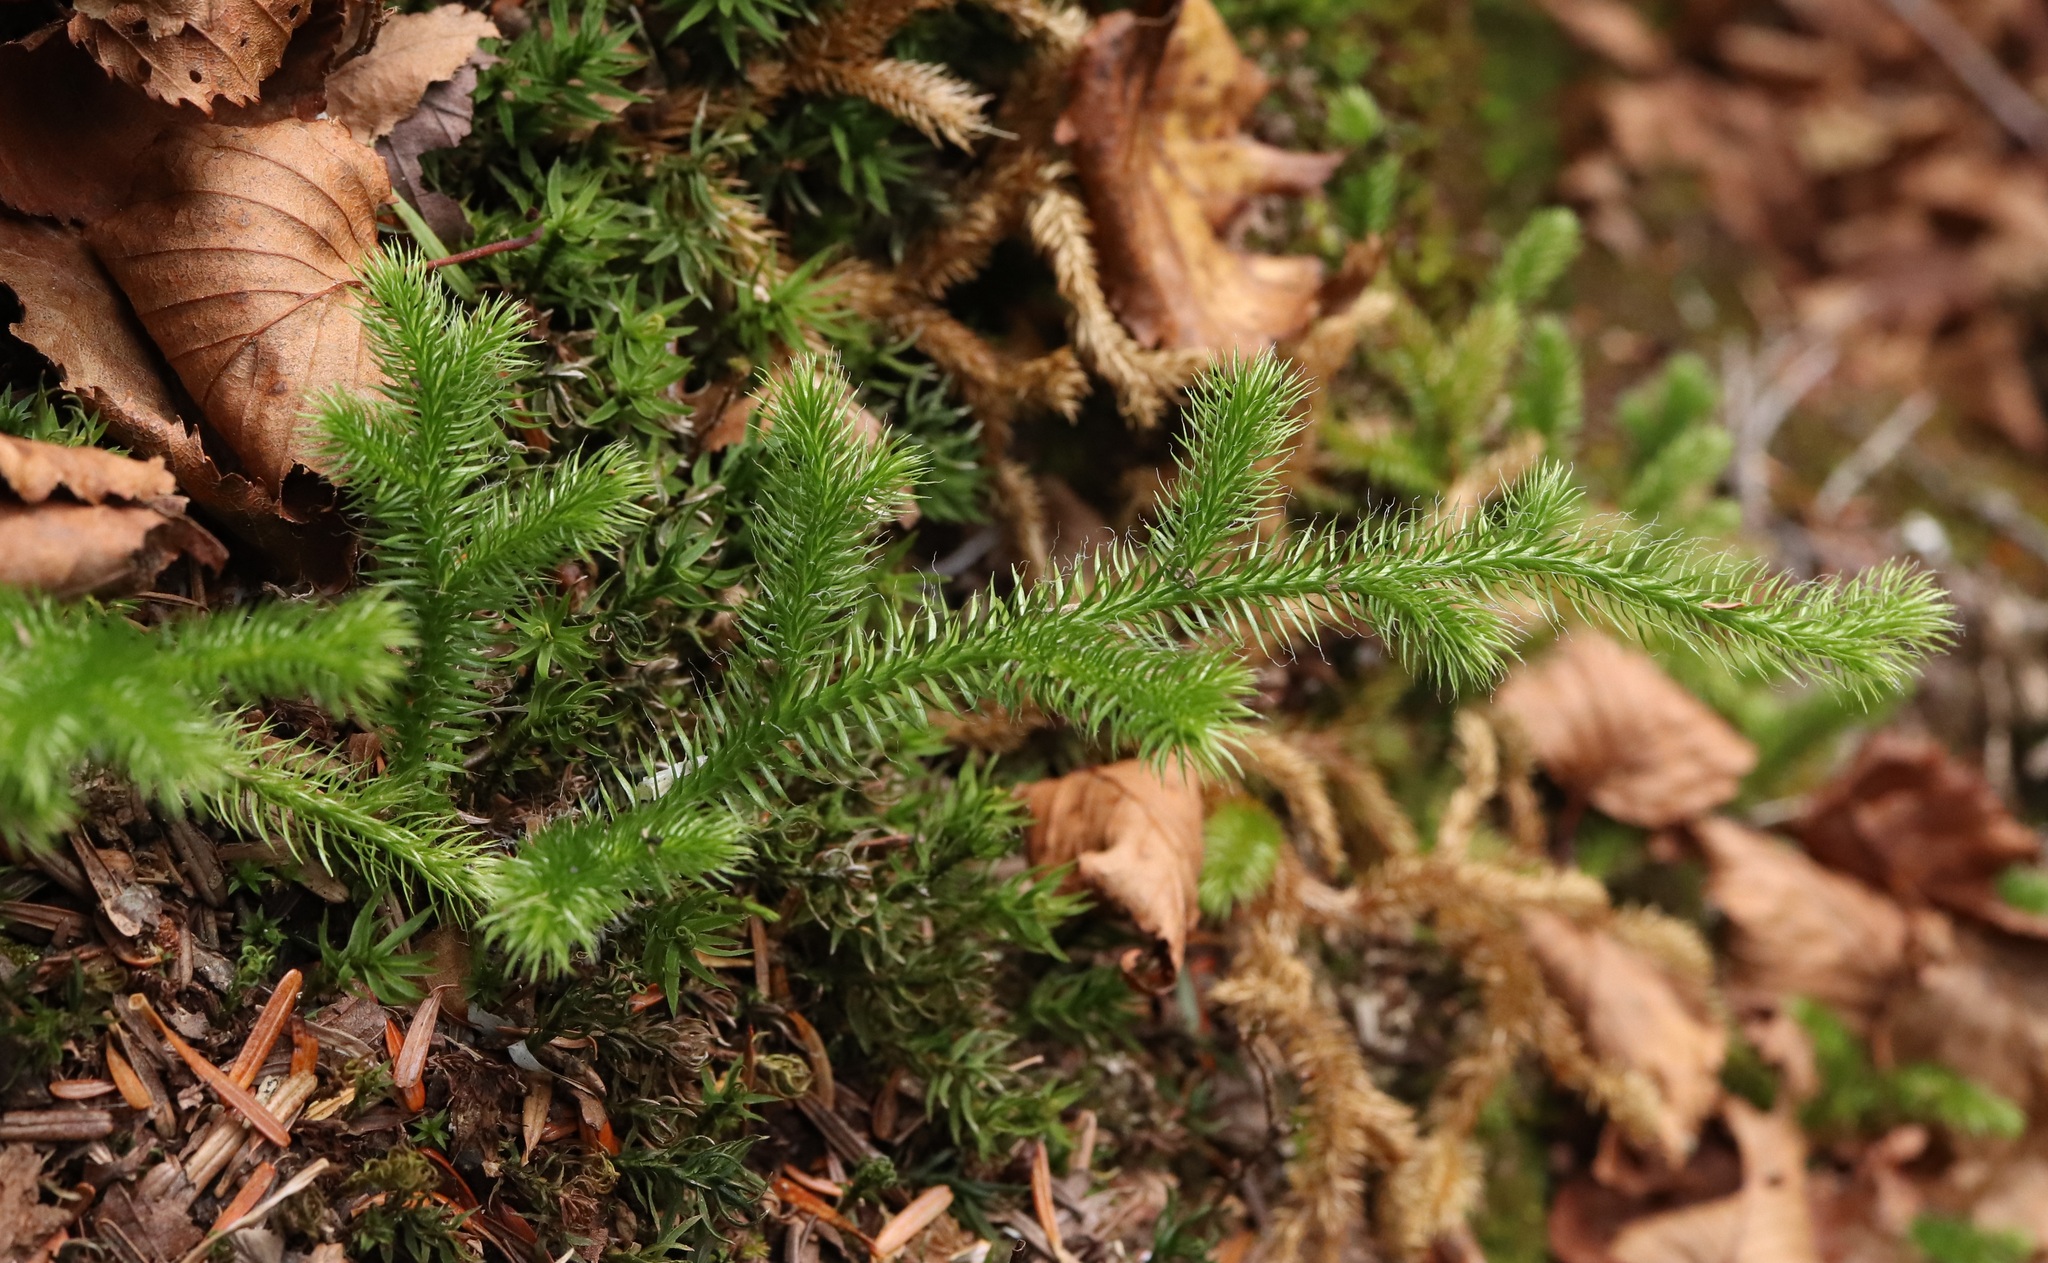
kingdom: Plantae
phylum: Tracheophyta
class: Lycopodiopsida
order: Lycopodiales
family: Lycopodiaceae
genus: Lycopodium
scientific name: Lycopodium clavatum
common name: Stag's-horn clubmoss
